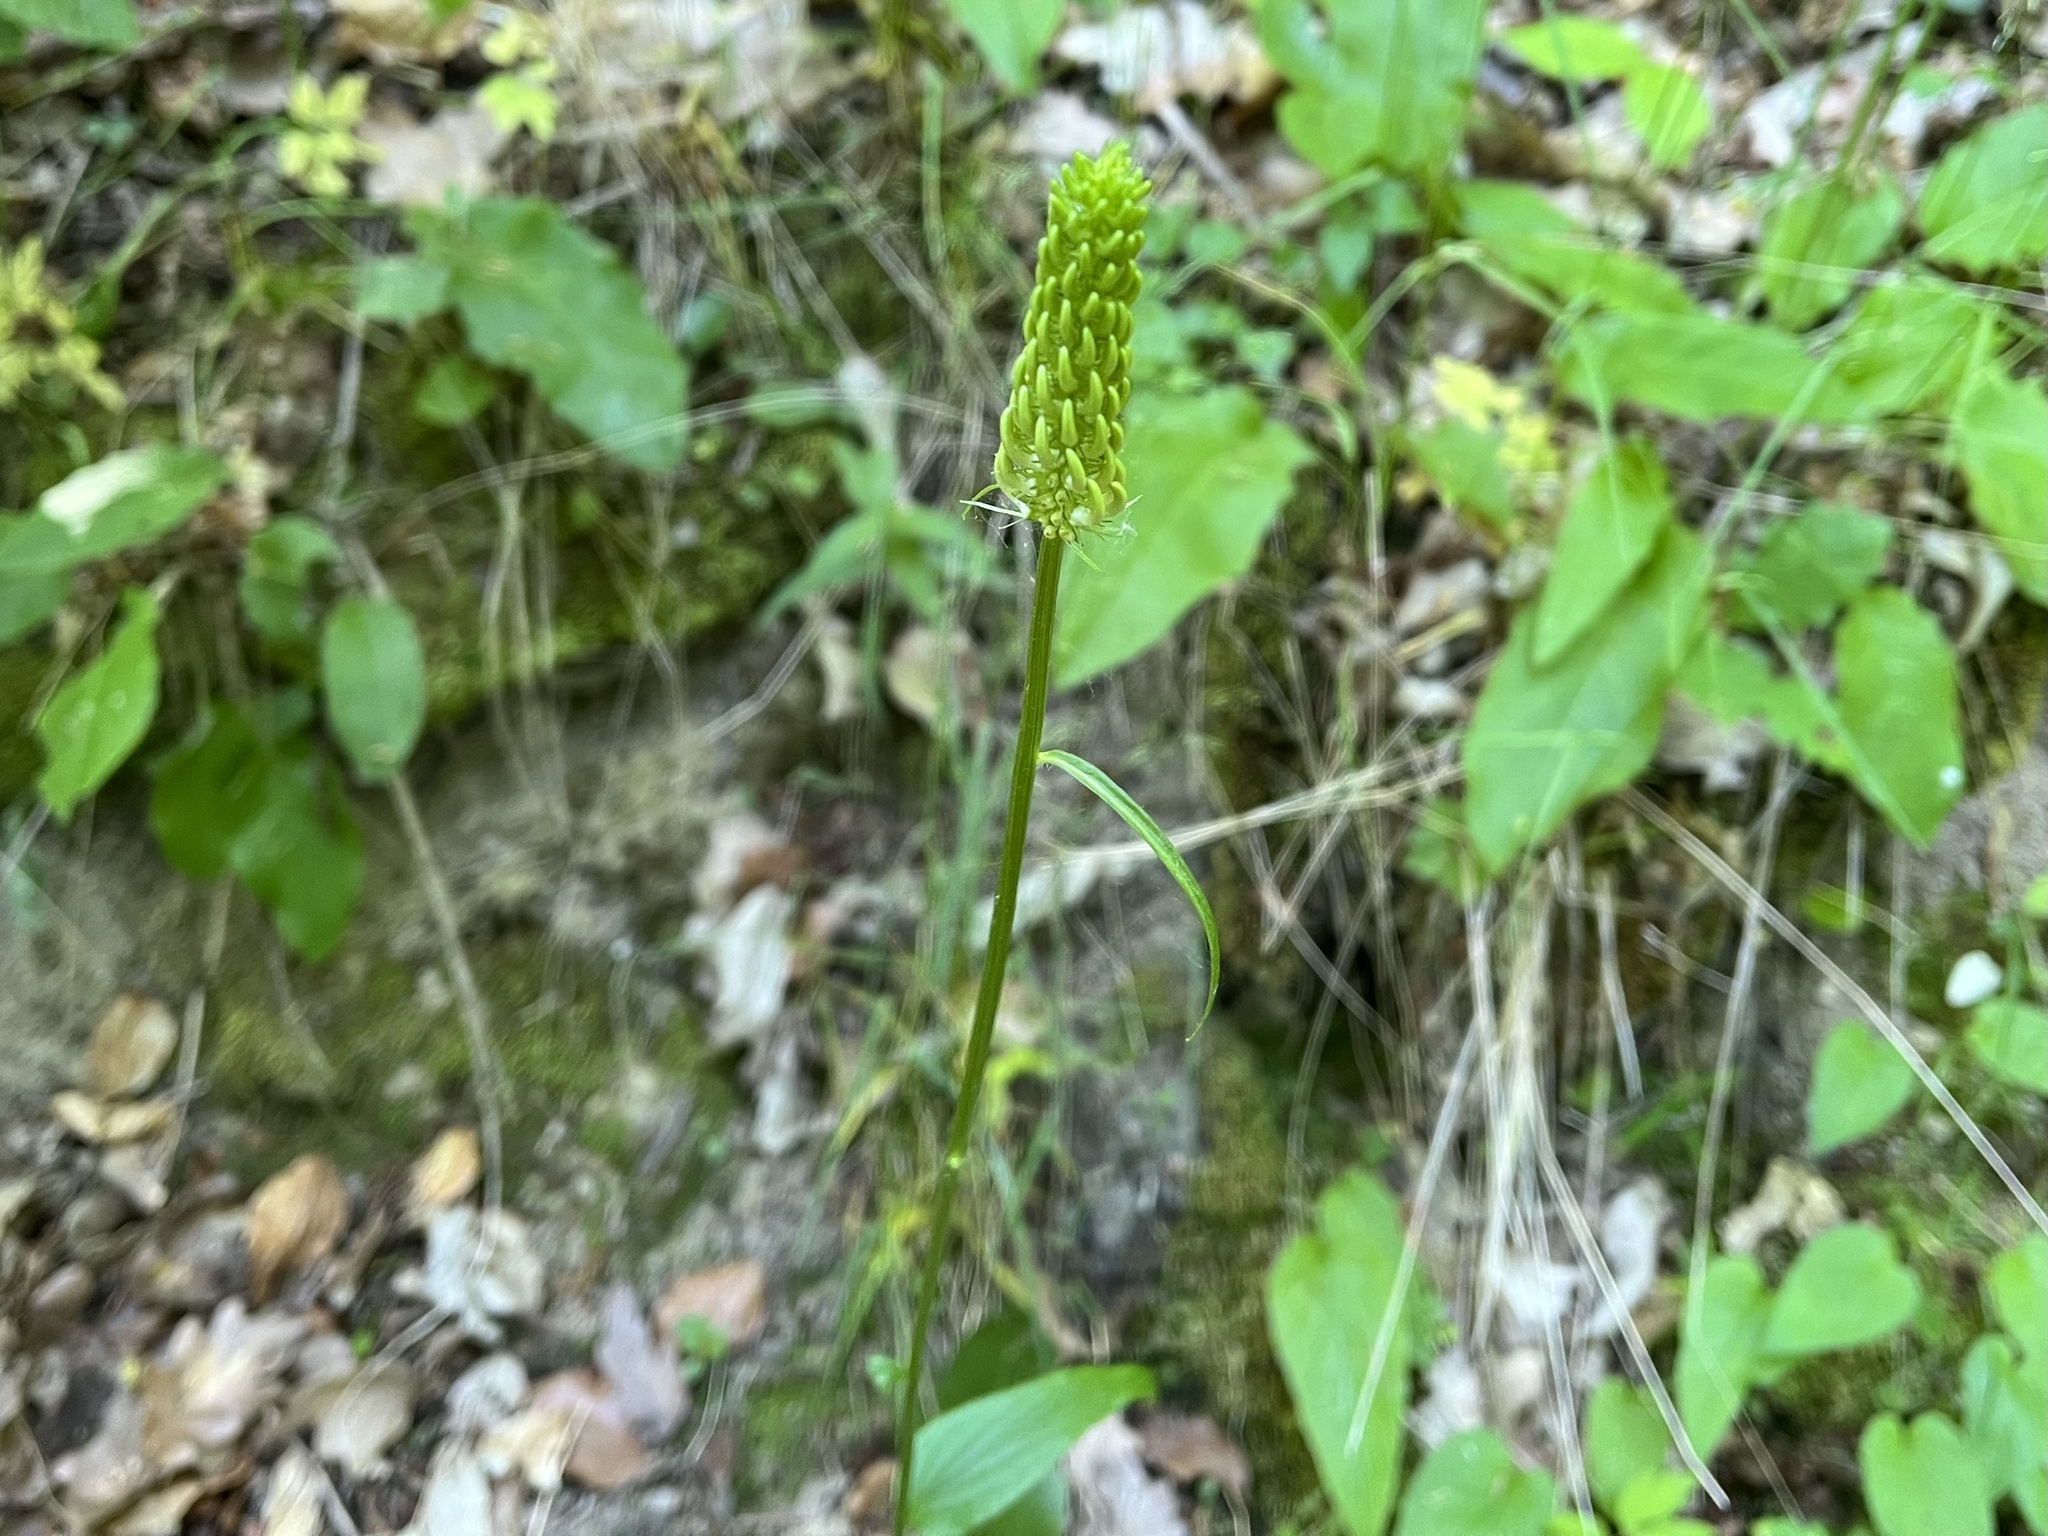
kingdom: Plantae
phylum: Tracheophyta
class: Magnoliopsida
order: Asterales
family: Campanulaceae
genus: Phyteuma
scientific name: Phyteuma spicatum
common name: Spiked rampion
